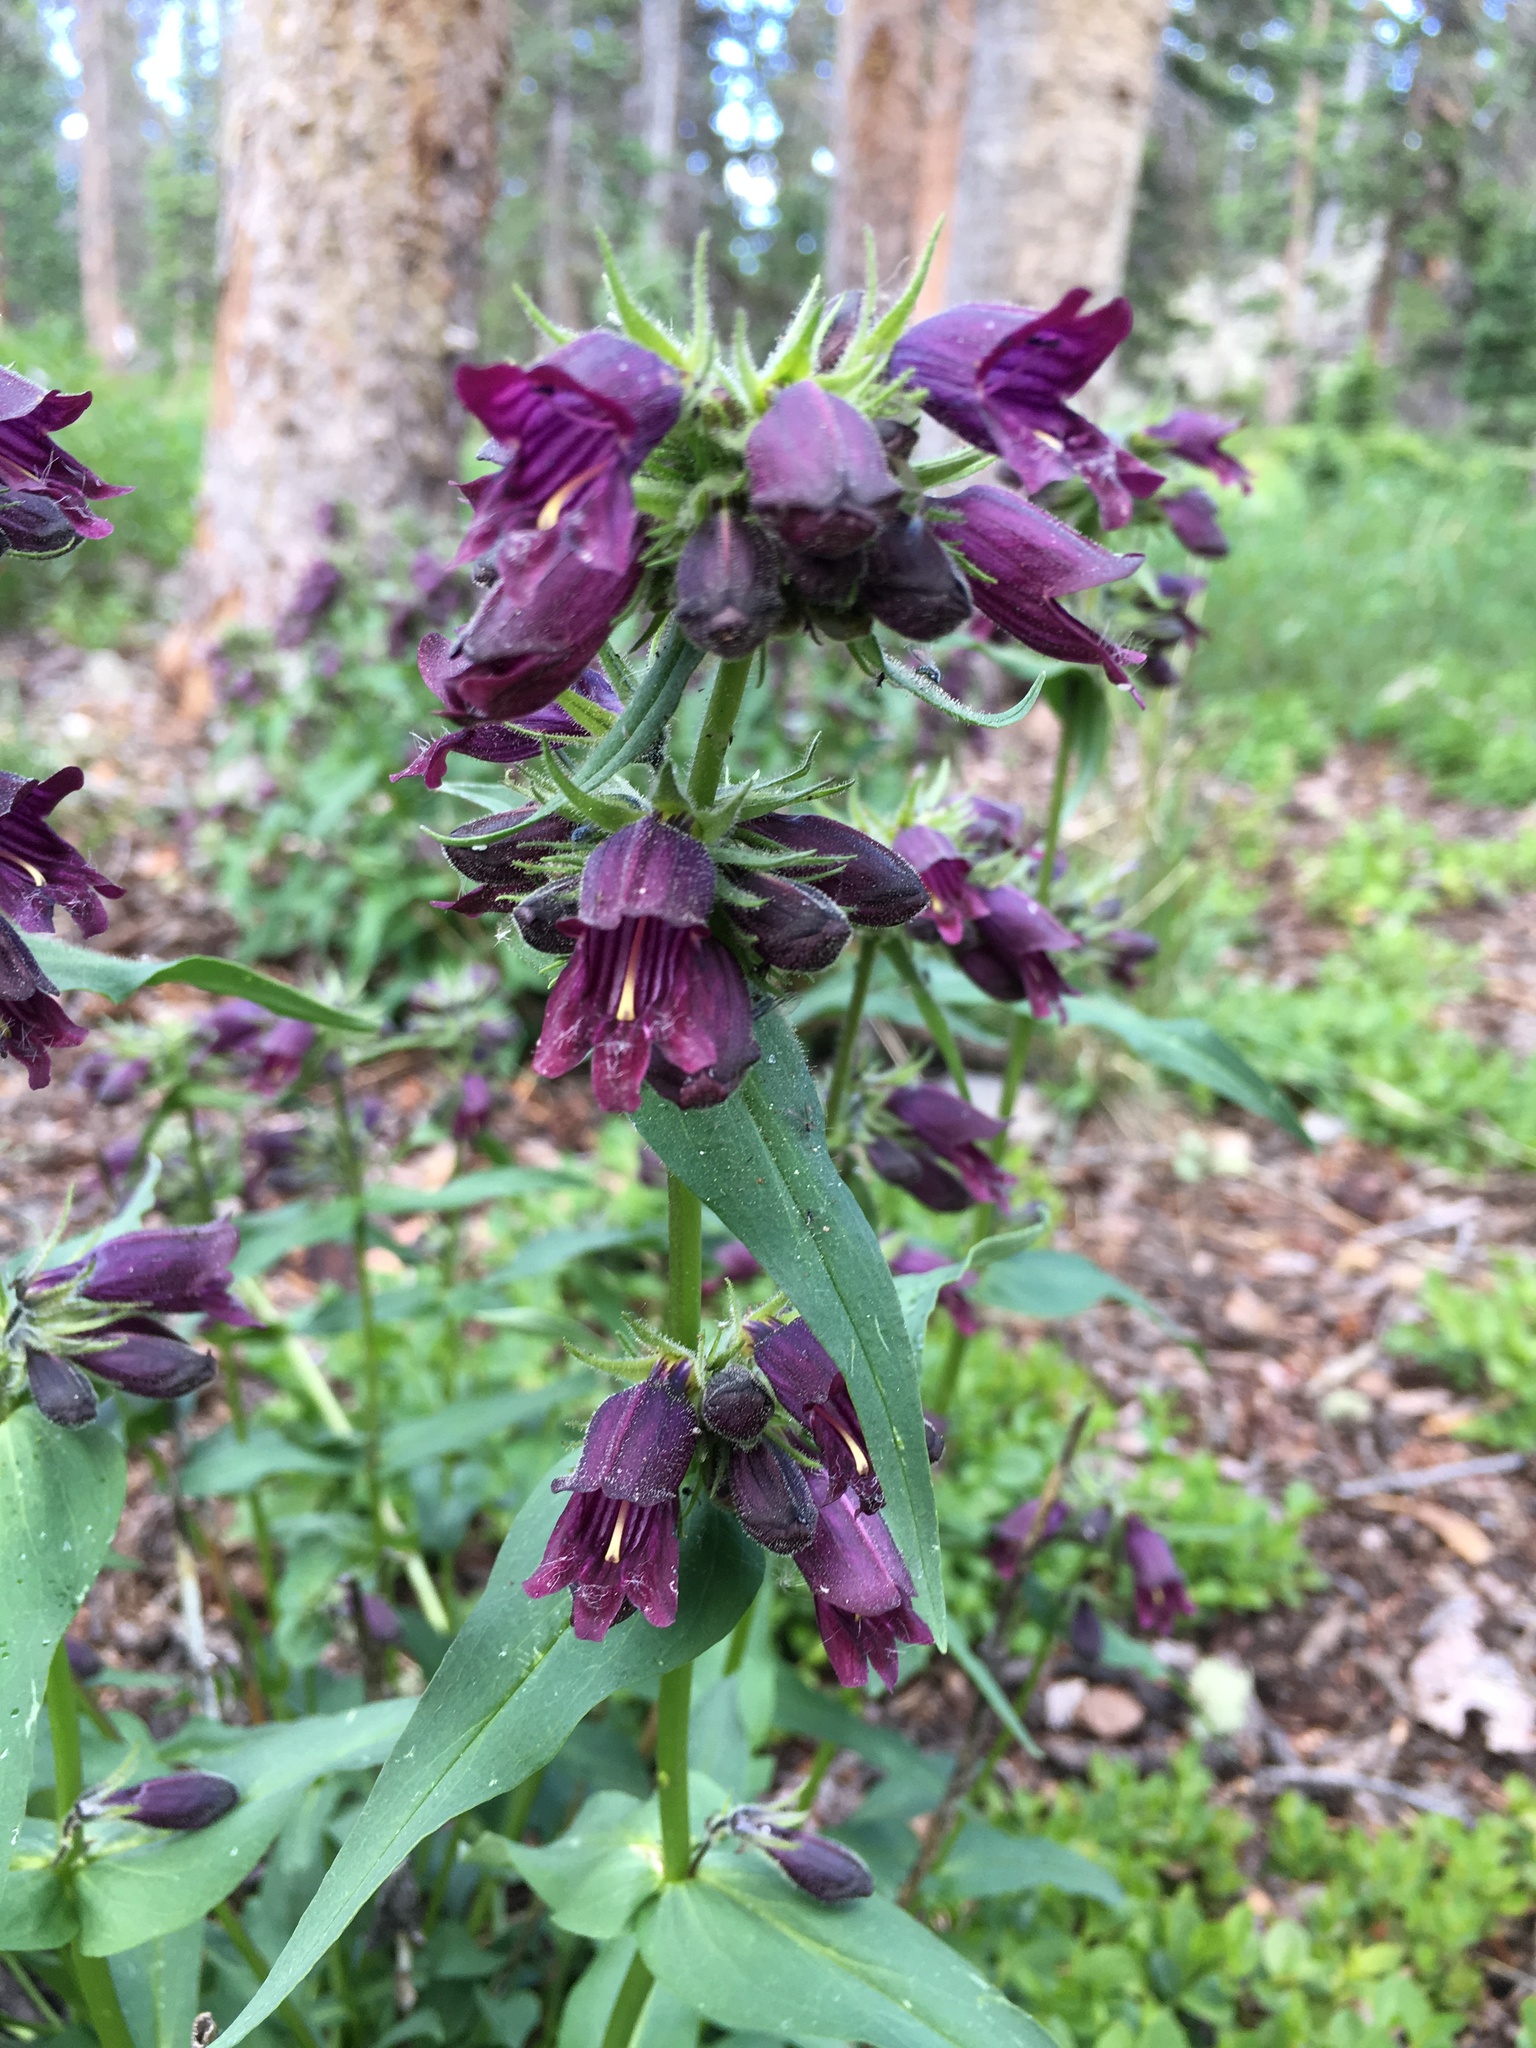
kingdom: Plantae
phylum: Tracheophyta
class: Magnoliopsida
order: Lamiales
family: Plantaginaceae
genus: Penstemon
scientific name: Penstemon whippleanus
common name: Whipple's penstemon
